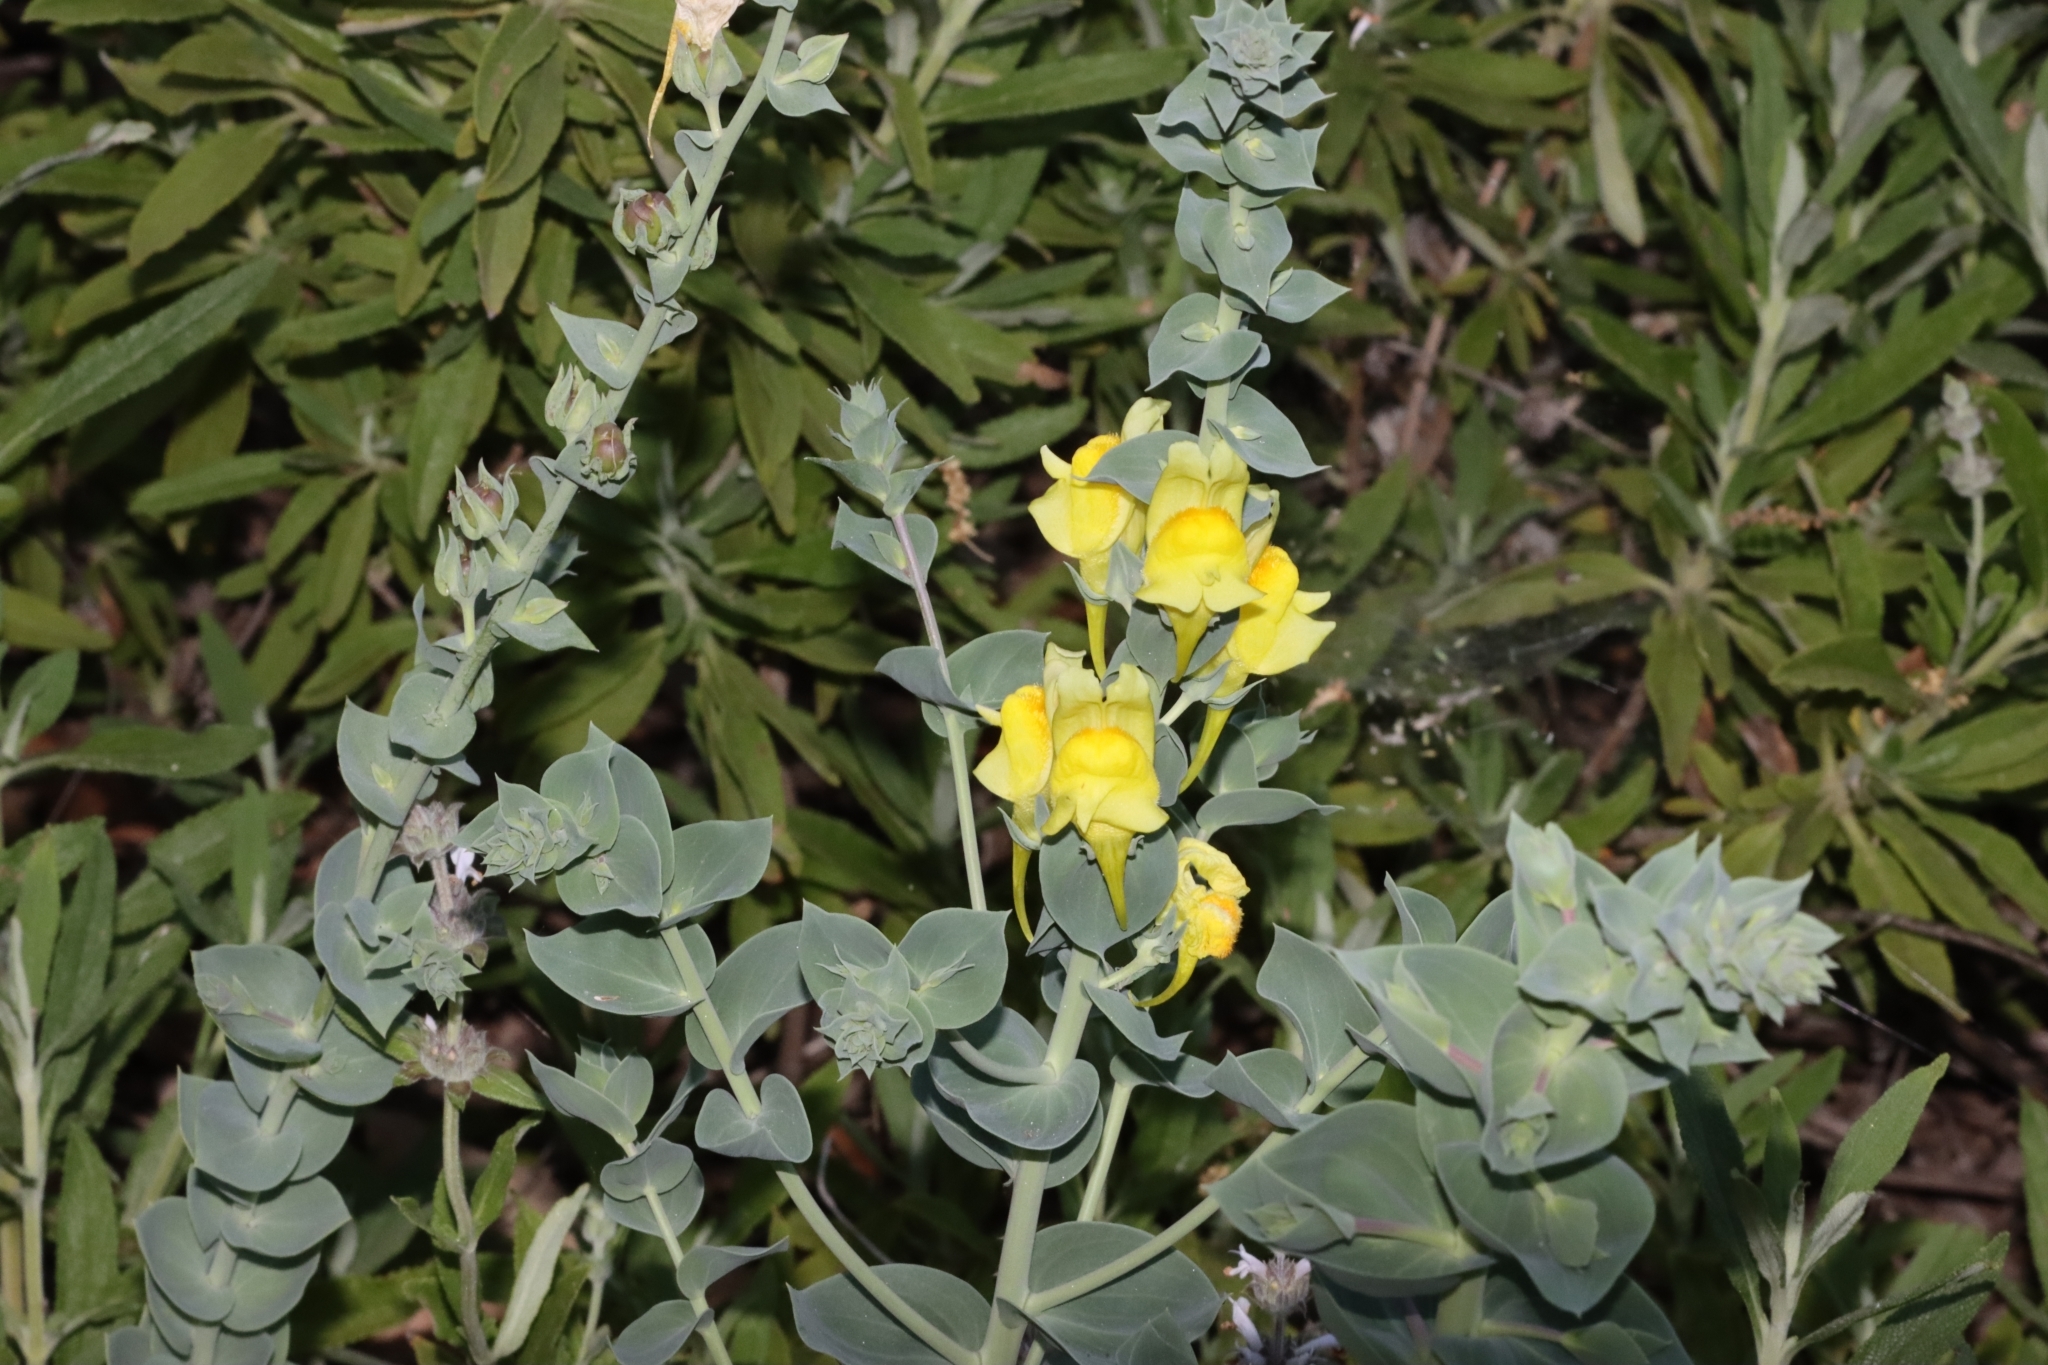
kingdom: Plantae
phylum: Tracheophyta
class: Magnoliopsida
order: Lamiales
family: Plantaginaceae
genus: Linaria
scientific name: Linaria dalmatica
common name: Dalmatian toadflax
